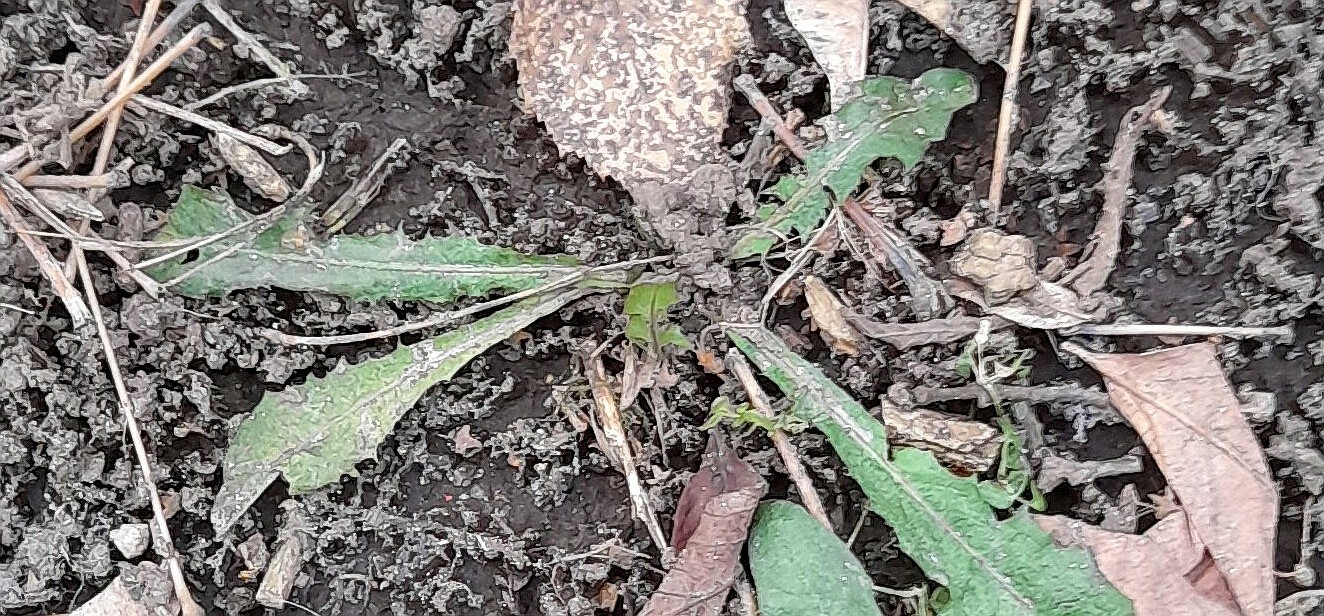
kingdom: Plantae
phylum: Tracheophyta
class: Magnoliopsida
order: Asterales
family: Asteraceae
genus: Taraxacum
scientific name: Taraxacum officinale
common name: Common dandelion
